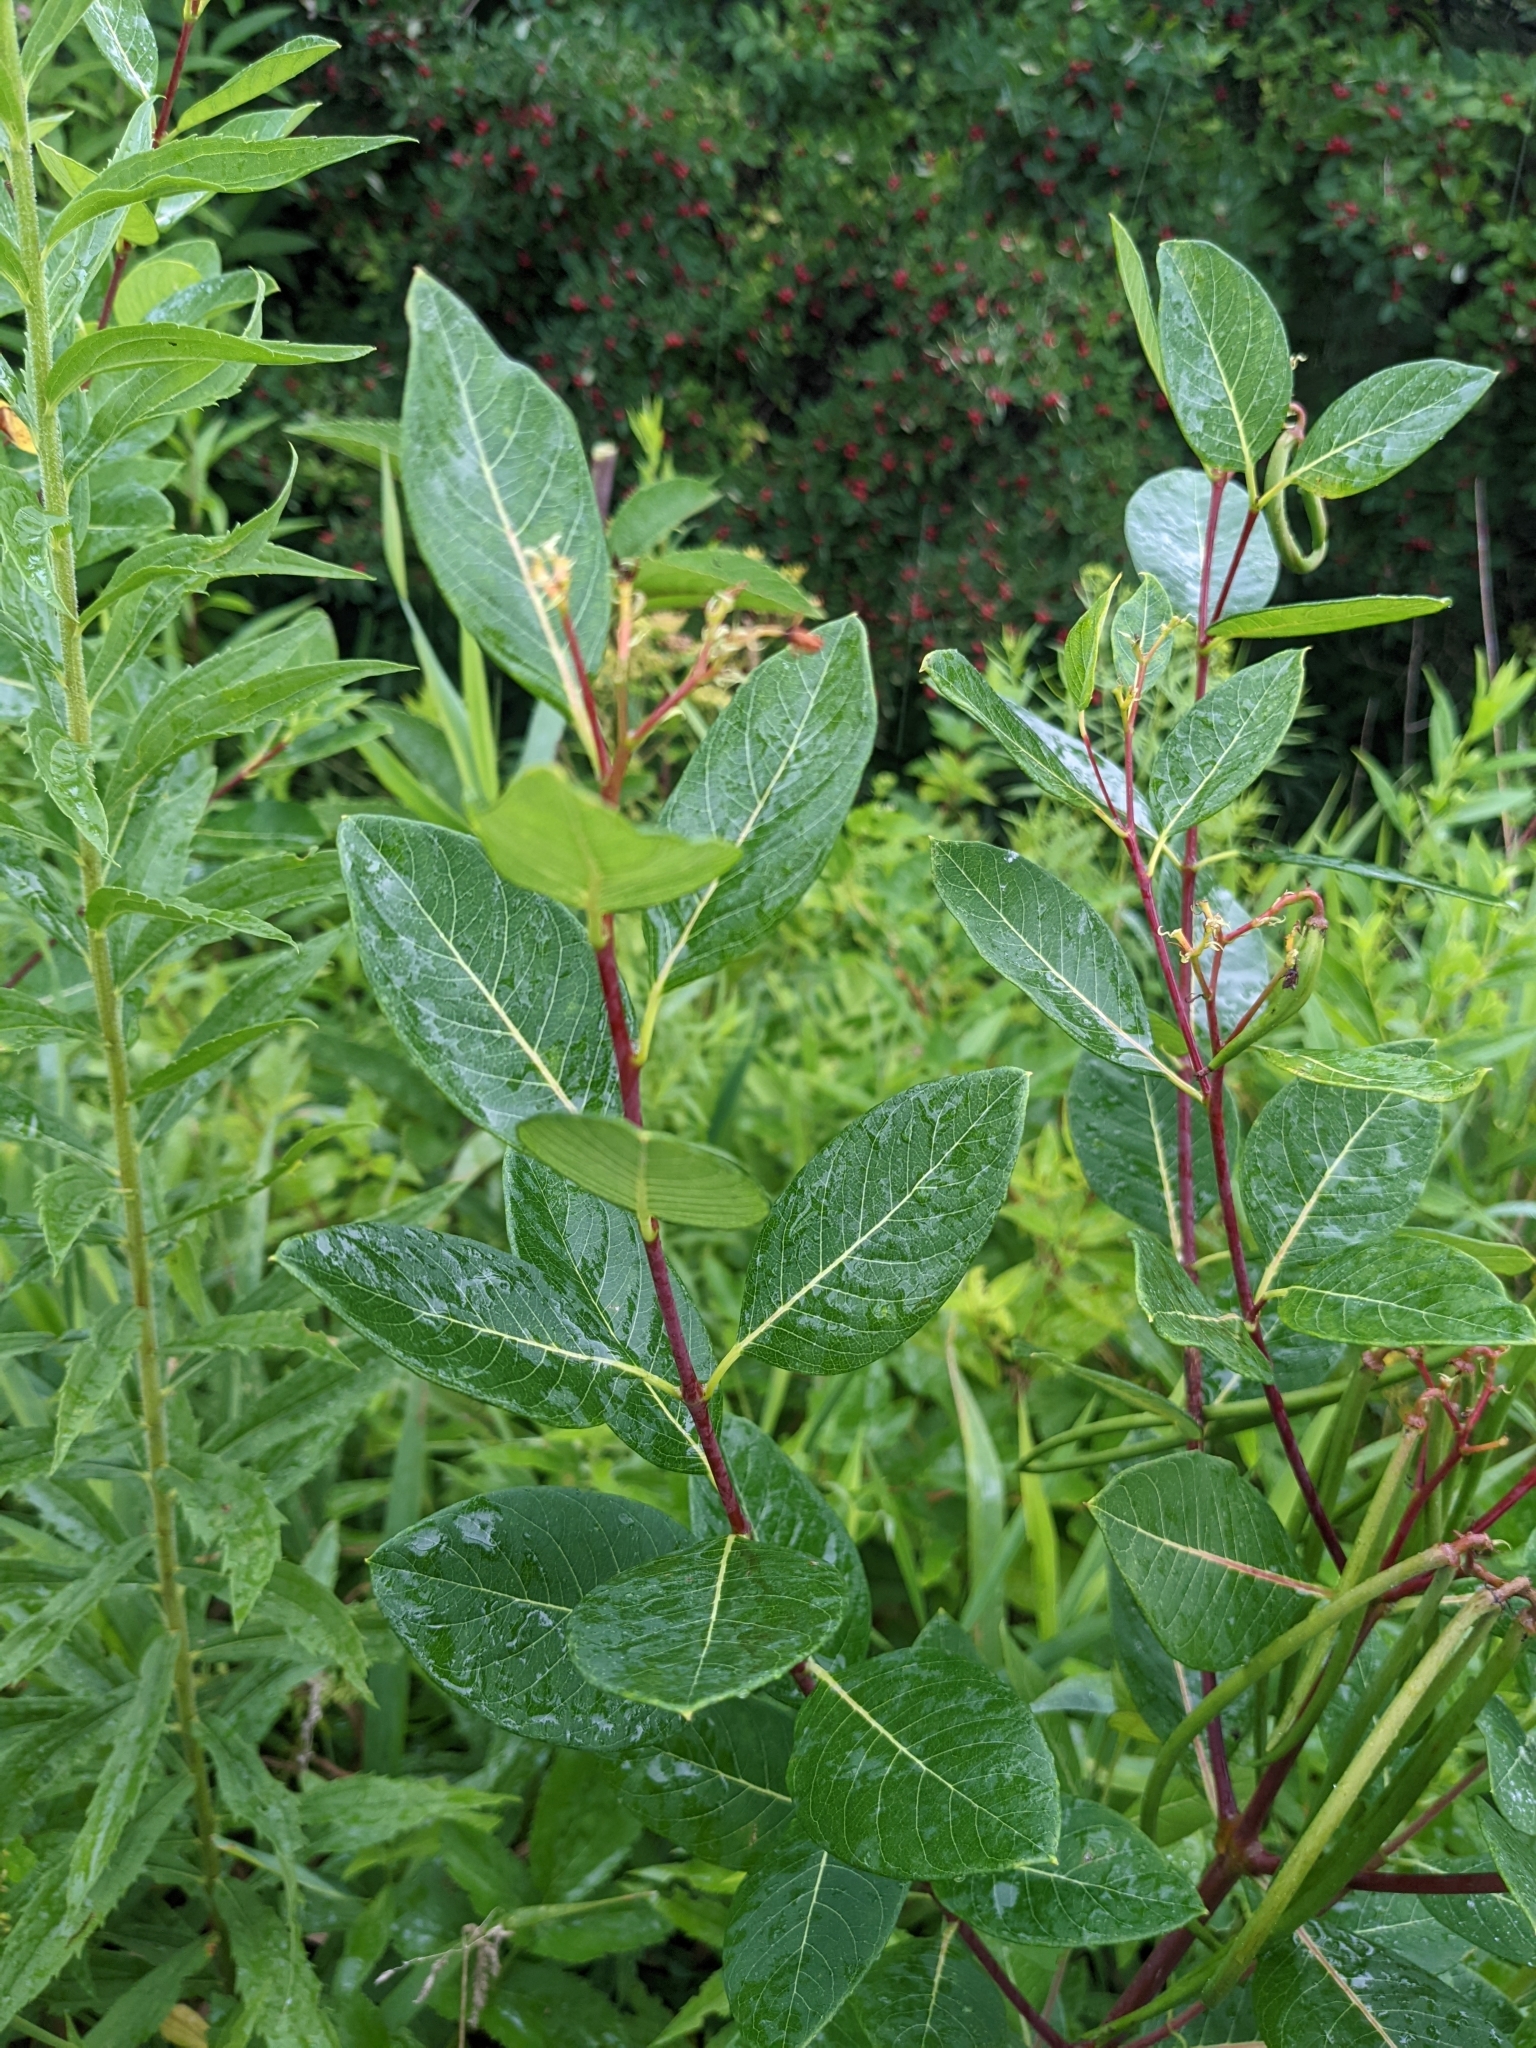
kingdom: Plantae
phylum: Tracheophyta
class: Magnoliopsida
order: Gentianales
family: Apocynaceae
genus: Apocynum
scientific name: Apocynum cannabinum
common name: Hemp dogbane
